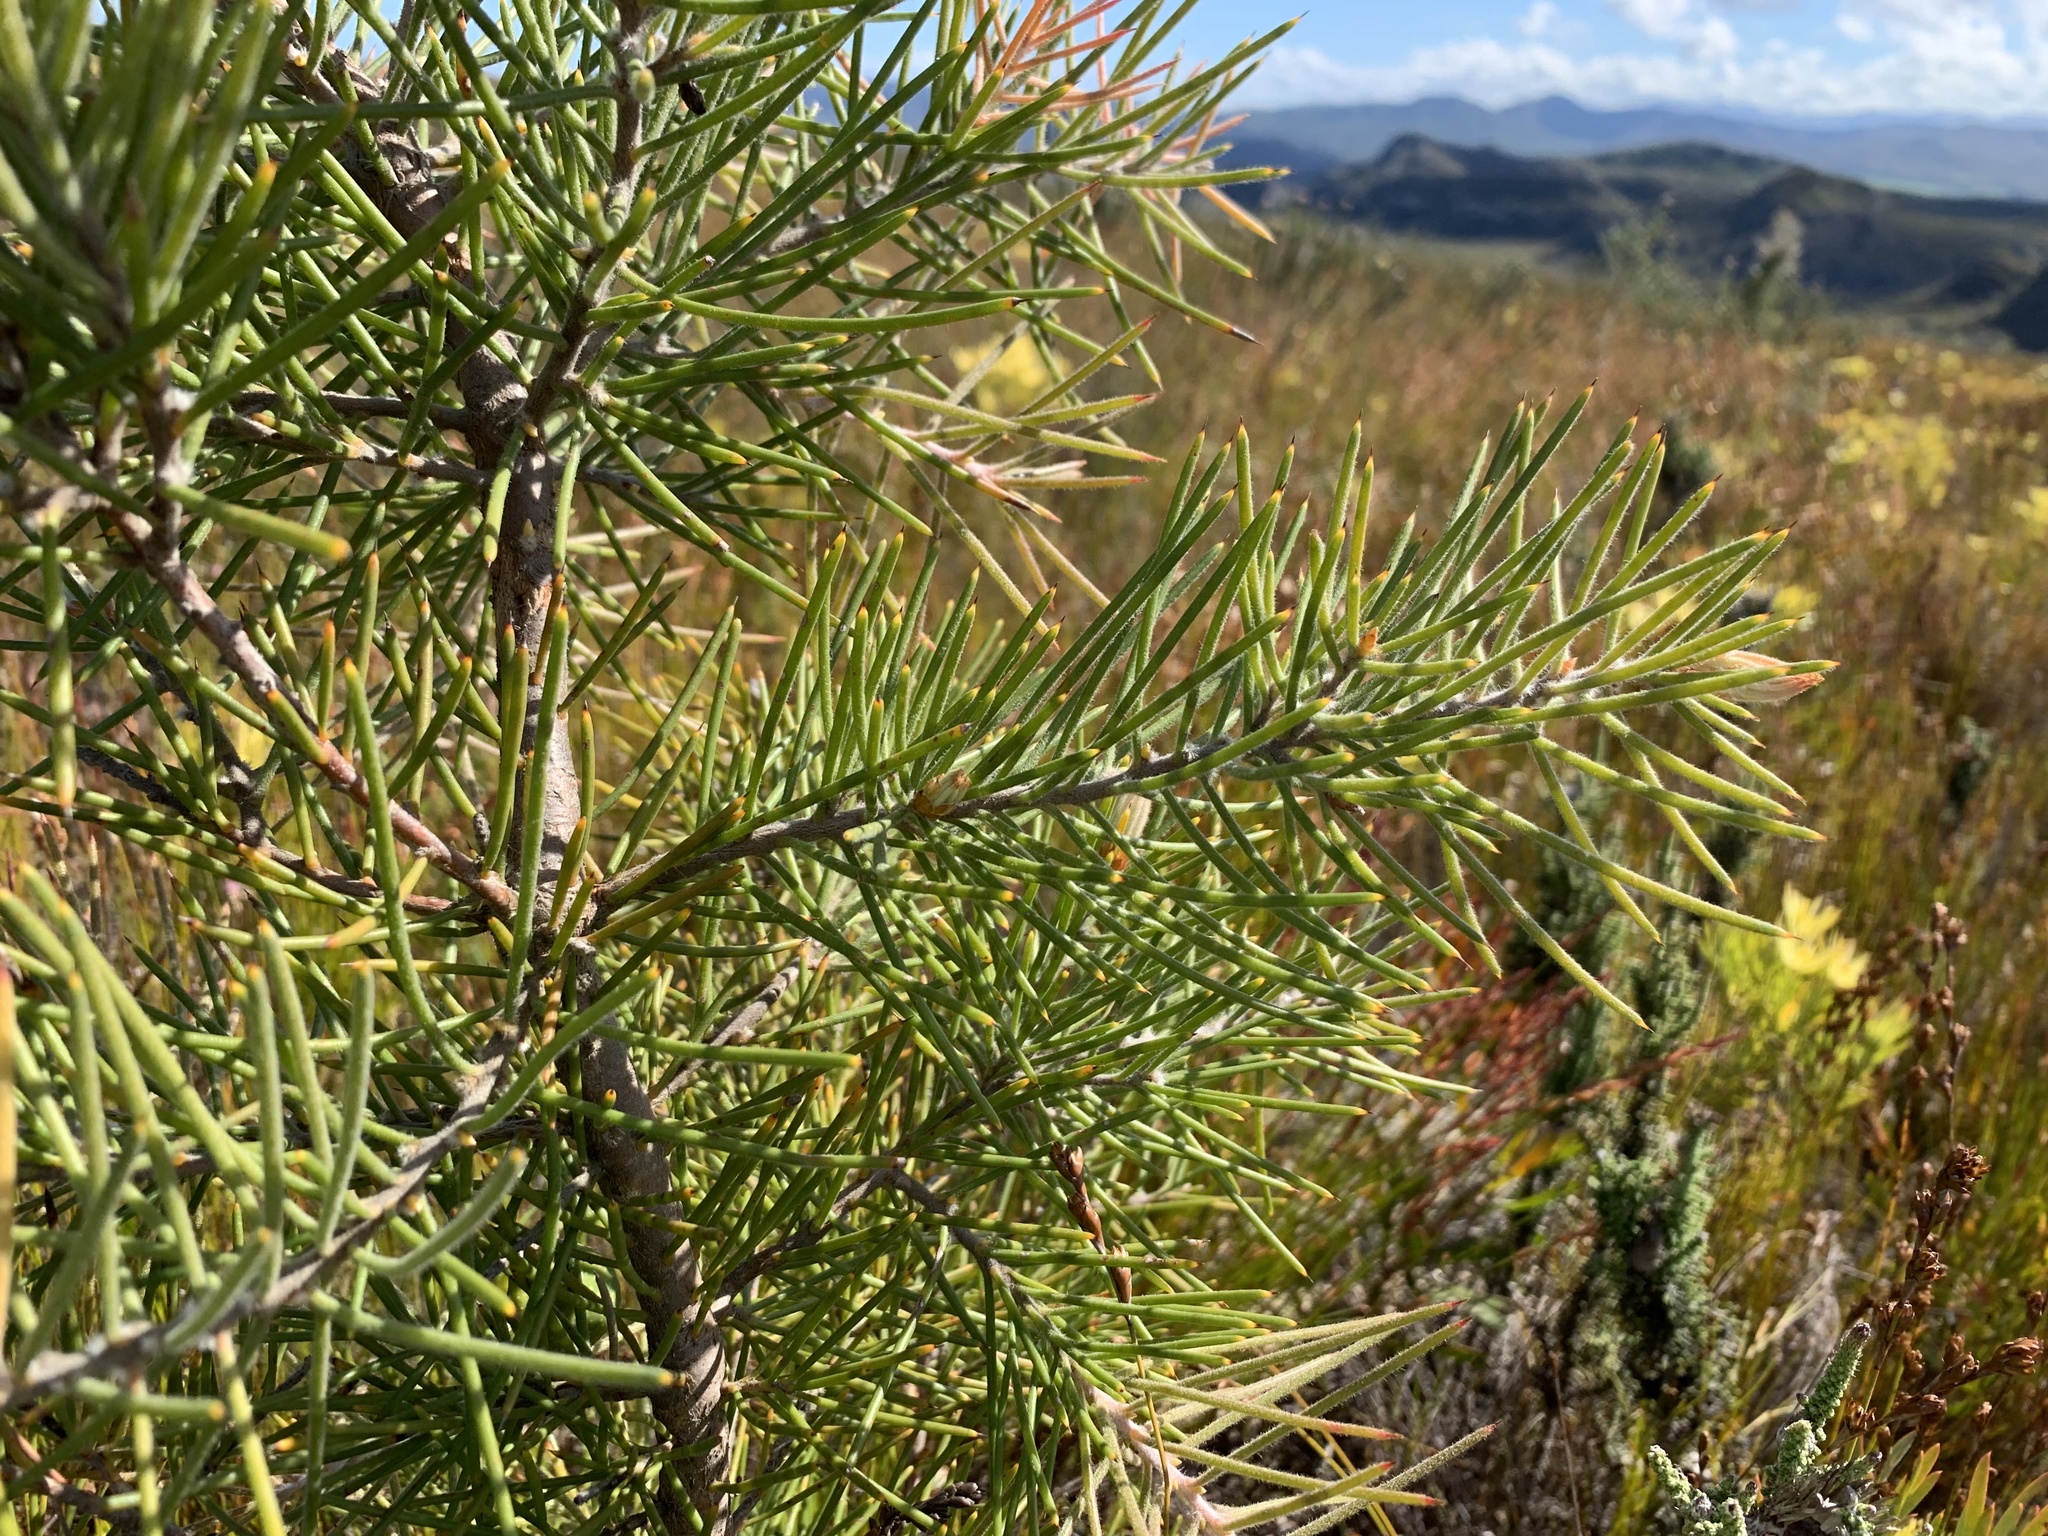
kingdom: Plantae
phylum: Tracheophyta
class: Magnoliopsida
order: Proteales
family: Proteaceae
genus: Hakea
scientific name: Hakea gibbosa
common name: Rock hakea
